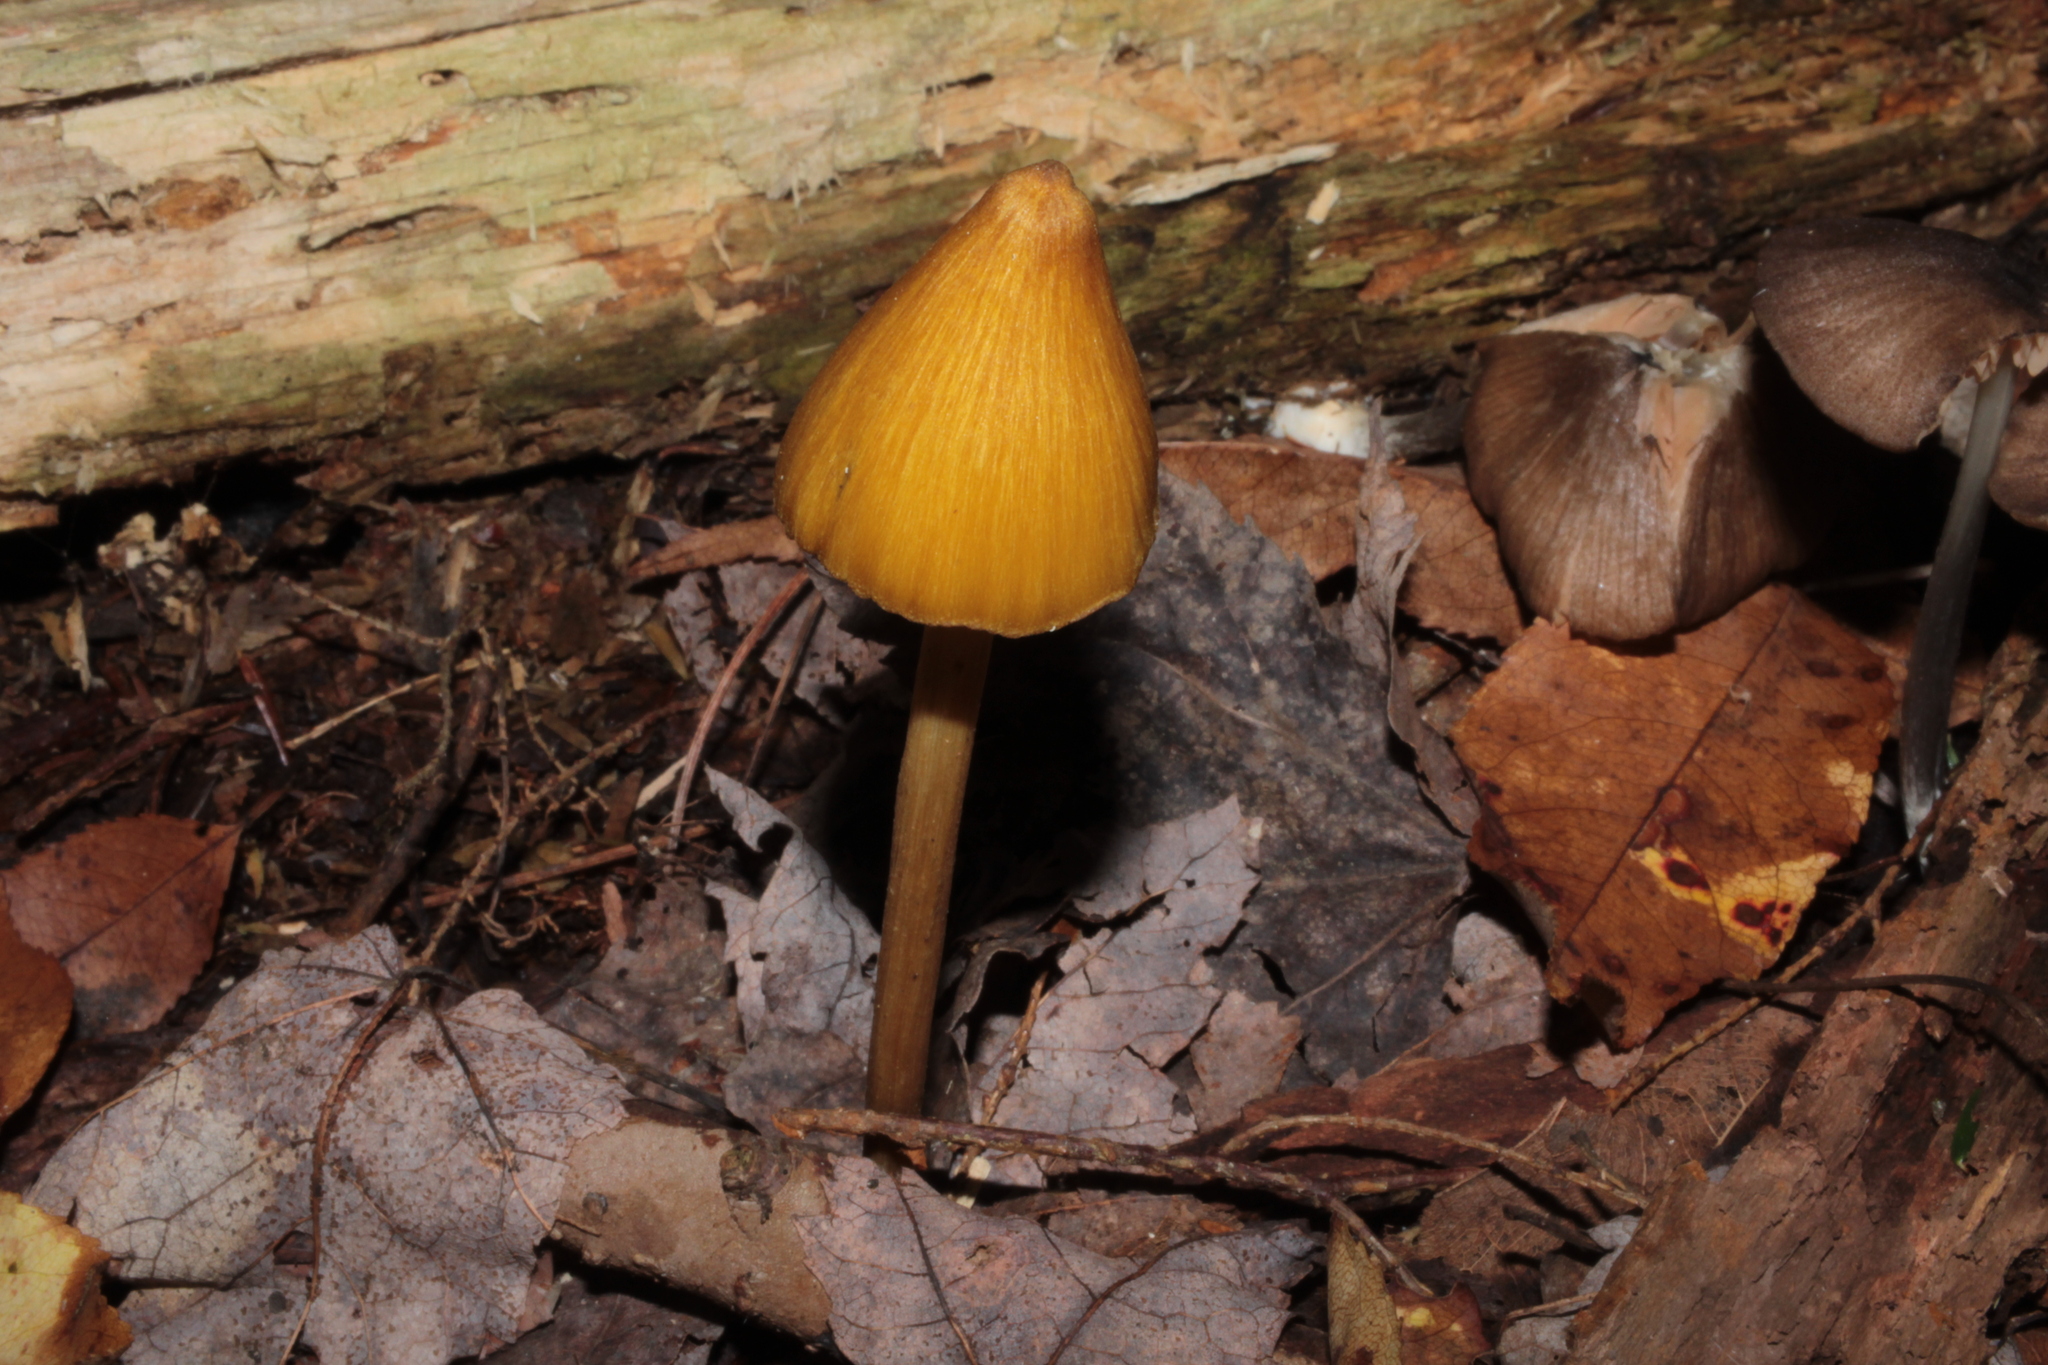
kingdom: Fungi
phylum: Basidiomycota
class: Agaricomycetes
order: Agaricales
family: Entolomataceae
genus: Entoloma
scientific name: Entoloma luteum
